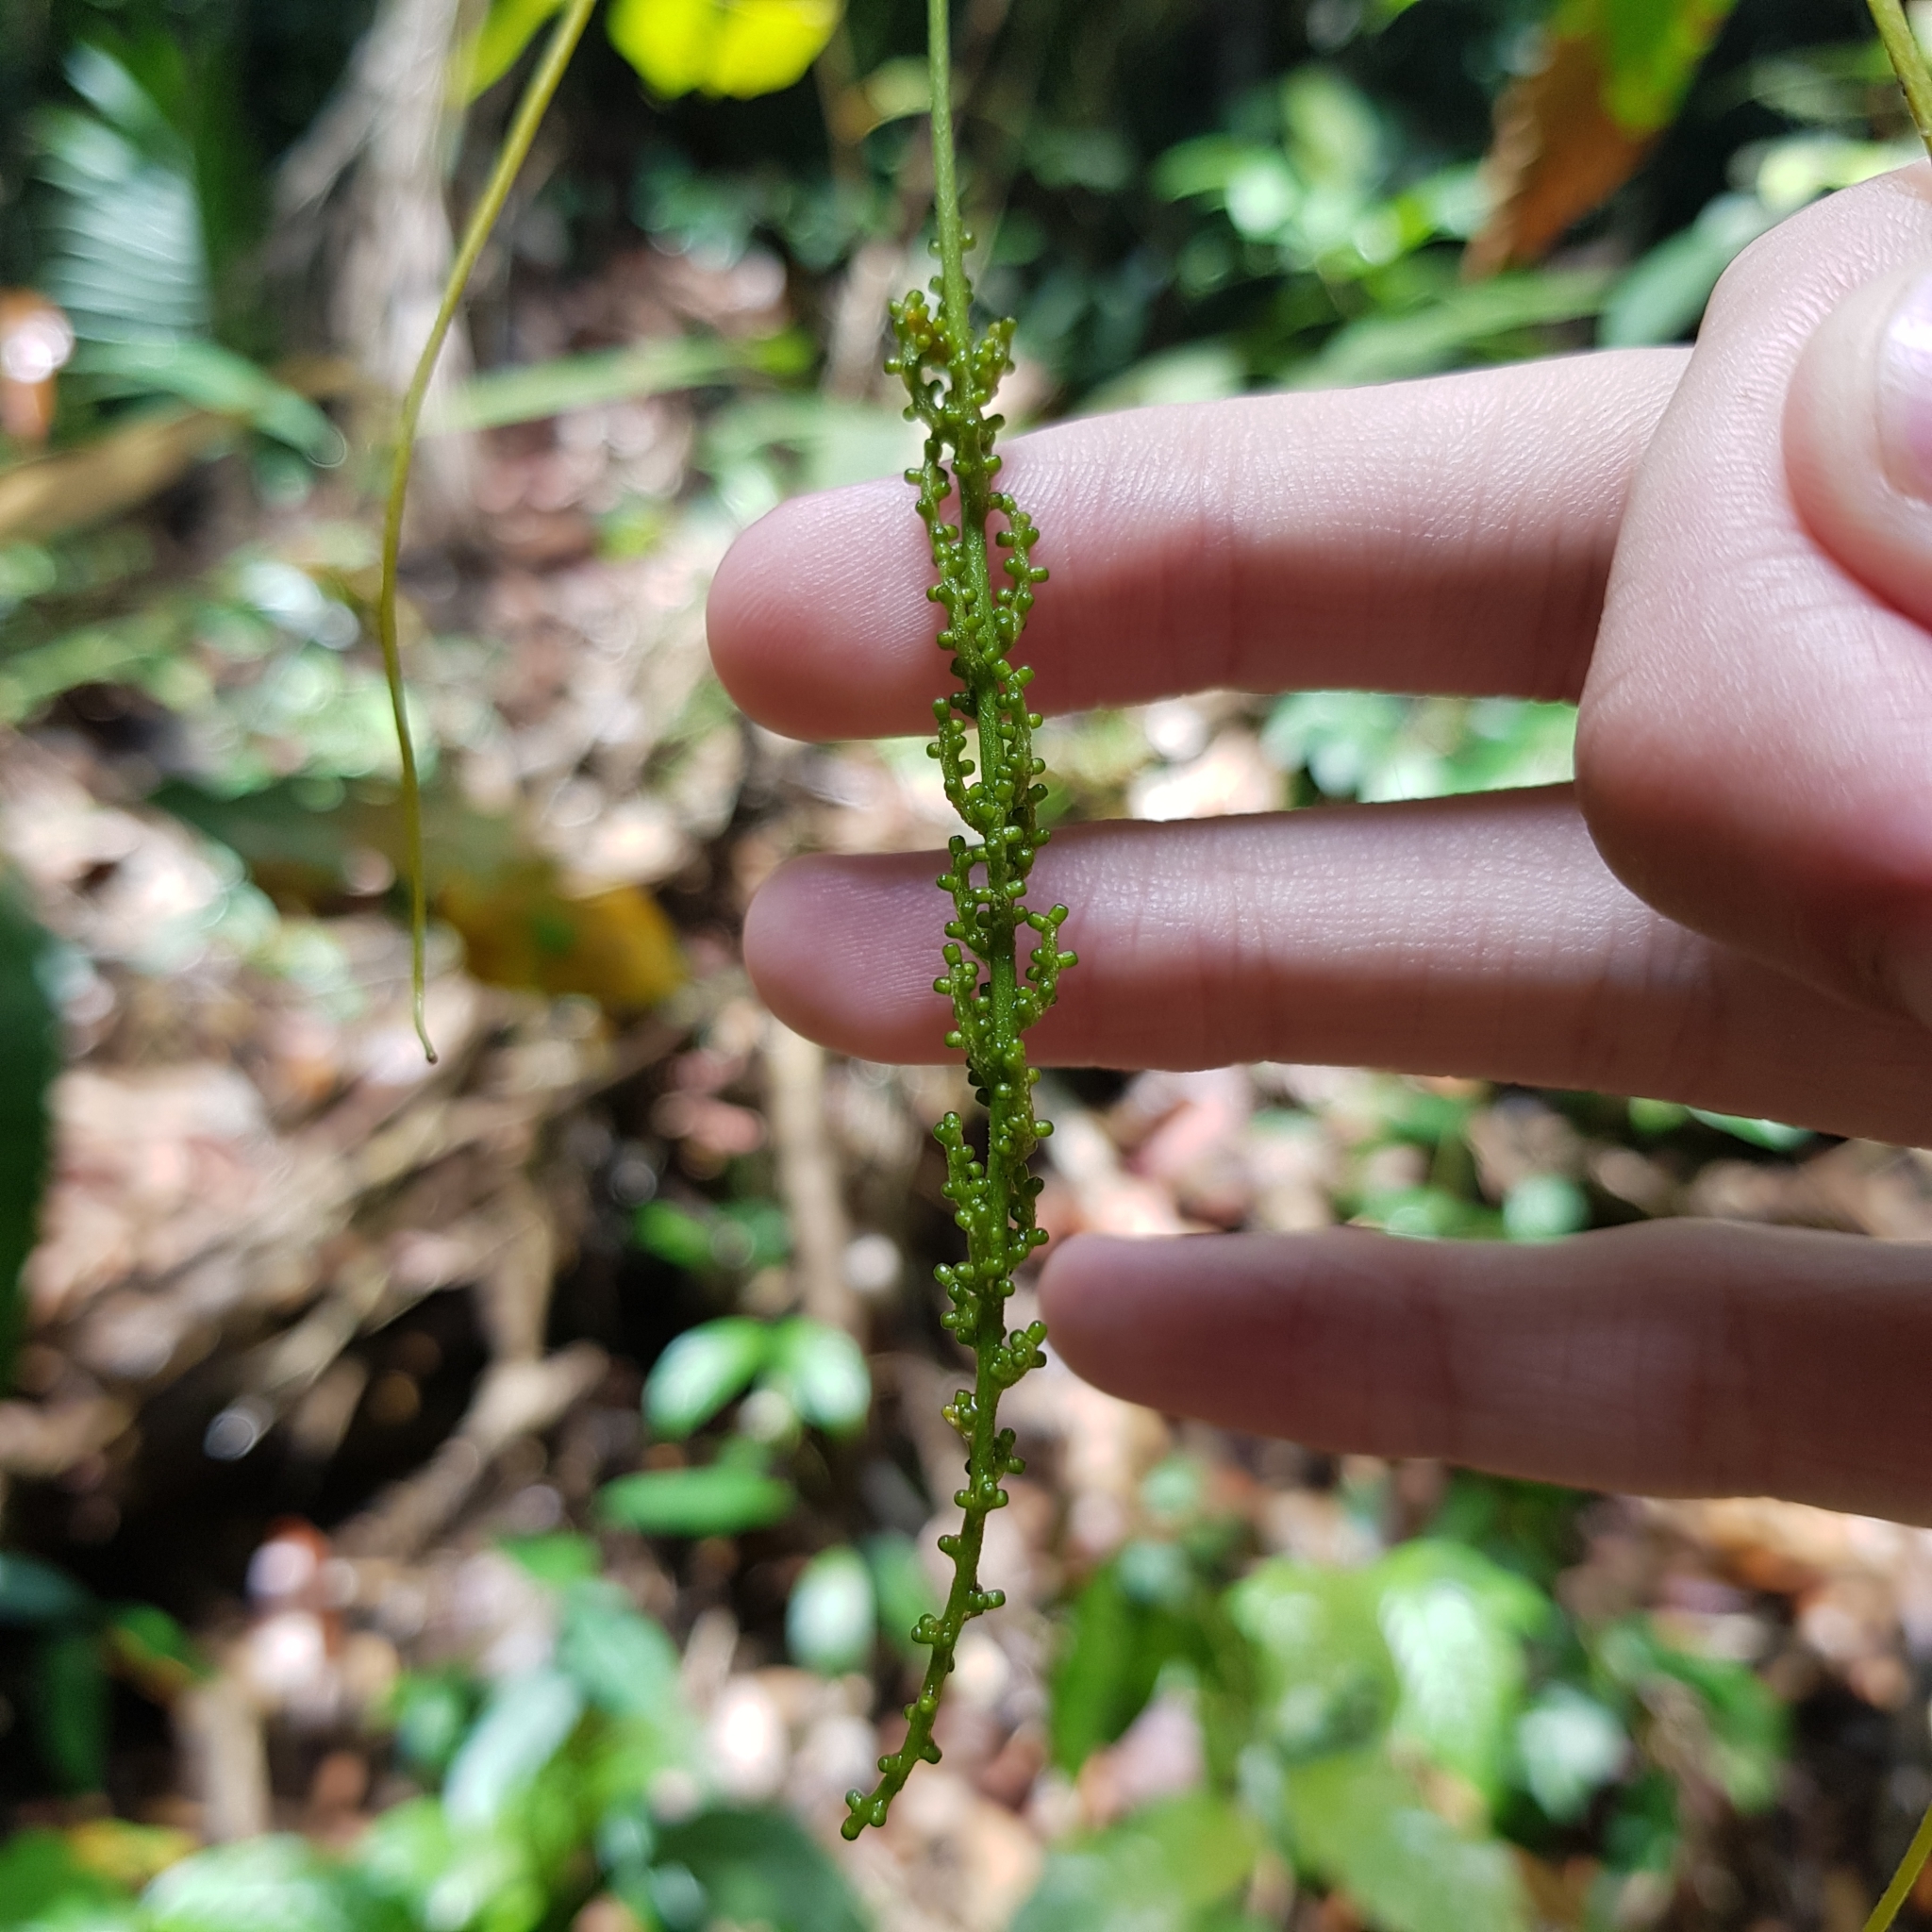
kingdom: Plantae
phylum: Tracheophyta
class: Magnoliopsida
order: Vitales
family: Vitaceae
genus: Ampelocissus
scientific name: Ampelocissus gracilis
